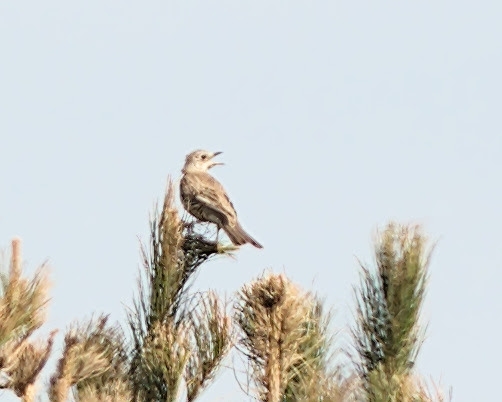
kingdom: Animalia
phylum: Chordata
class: Aves
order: Passeriformes
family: Turdidae
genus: Turdus
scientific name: Turdus viscivorus
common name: Mistle thrush
